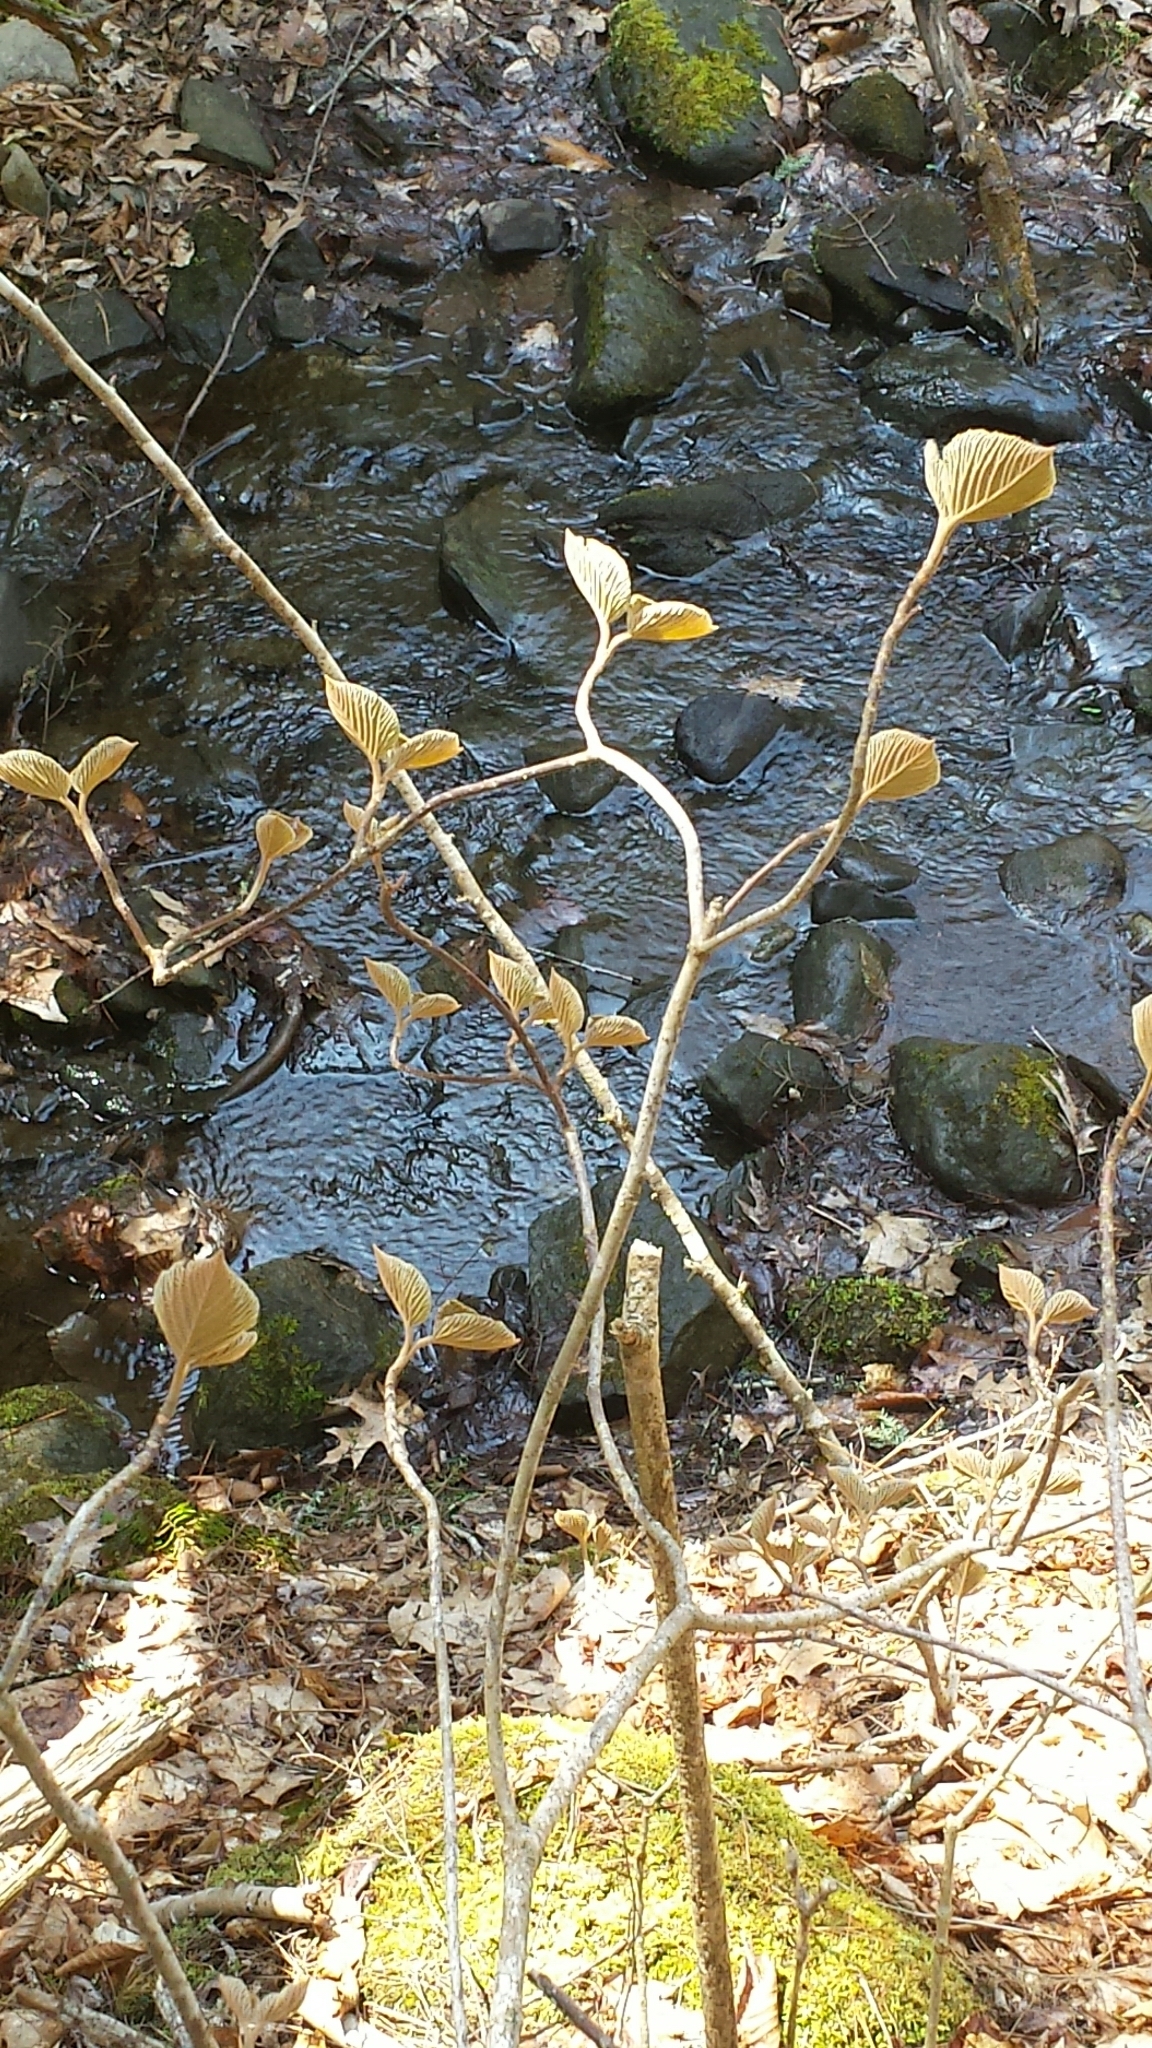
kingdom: Plantae
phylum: Tracheophyta
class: Magnoliopsida
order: Dipsacales
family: Viburnaceae
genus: Viburnum
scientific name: Viburnum lantanoides
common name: Hobblebush
